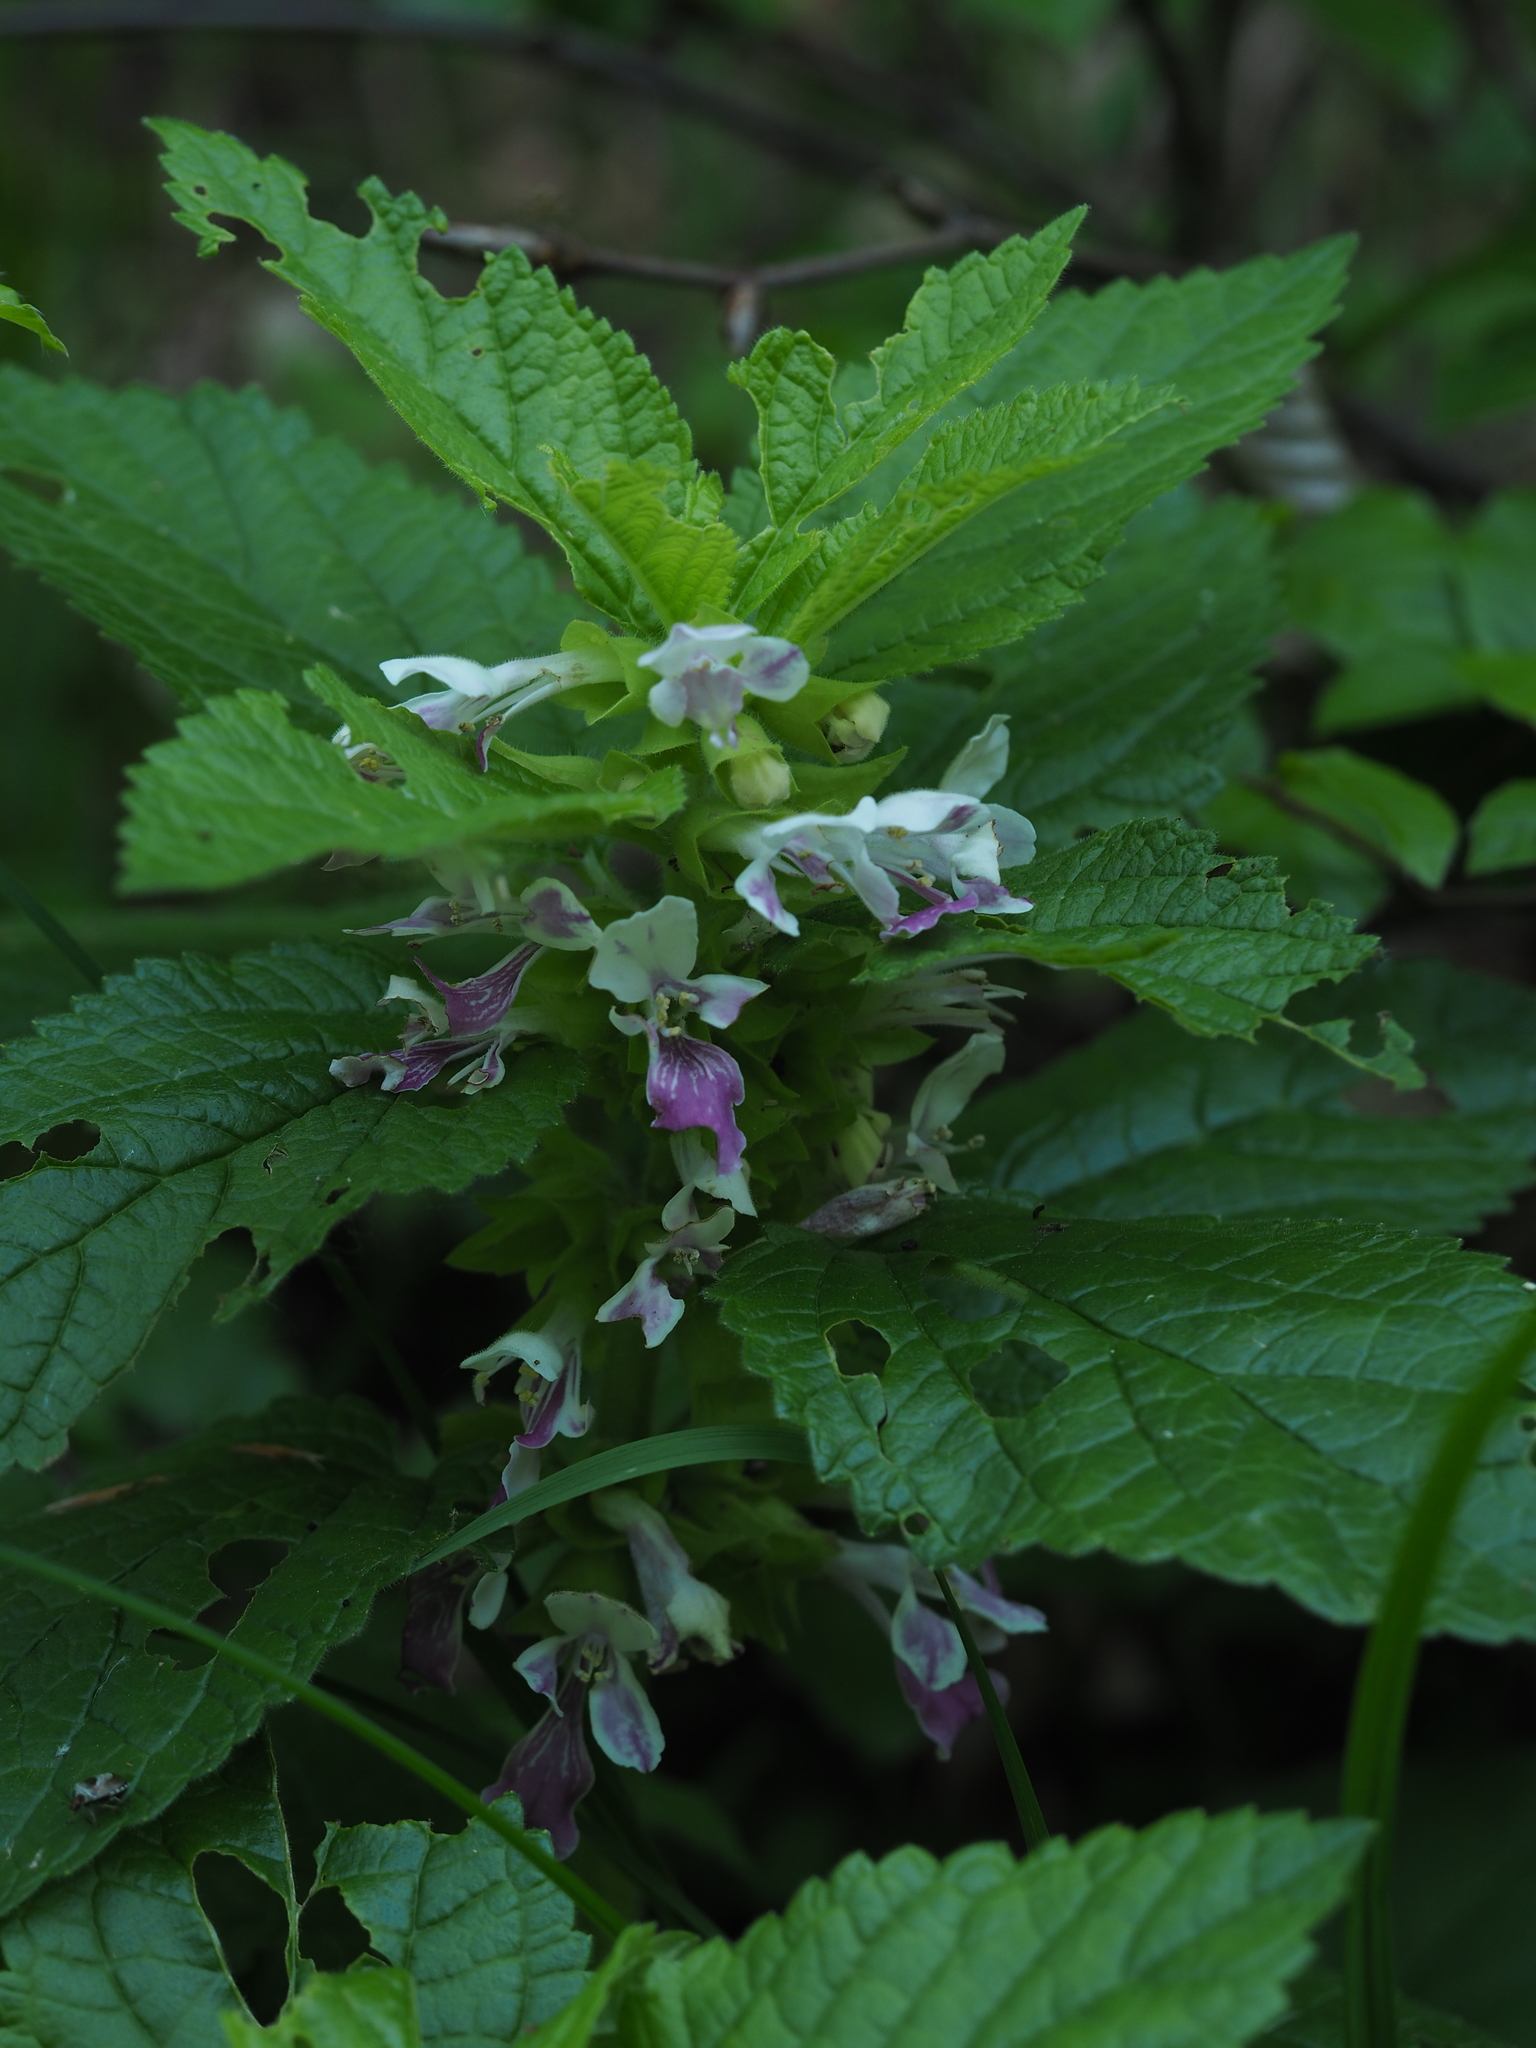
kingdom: Plantae
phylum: Tracheophyta
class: Magnoliopsida
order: Lamiales
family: Lamiaceae
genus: Melittis
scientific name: Melittis melissophyllum
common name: Bastard balm
